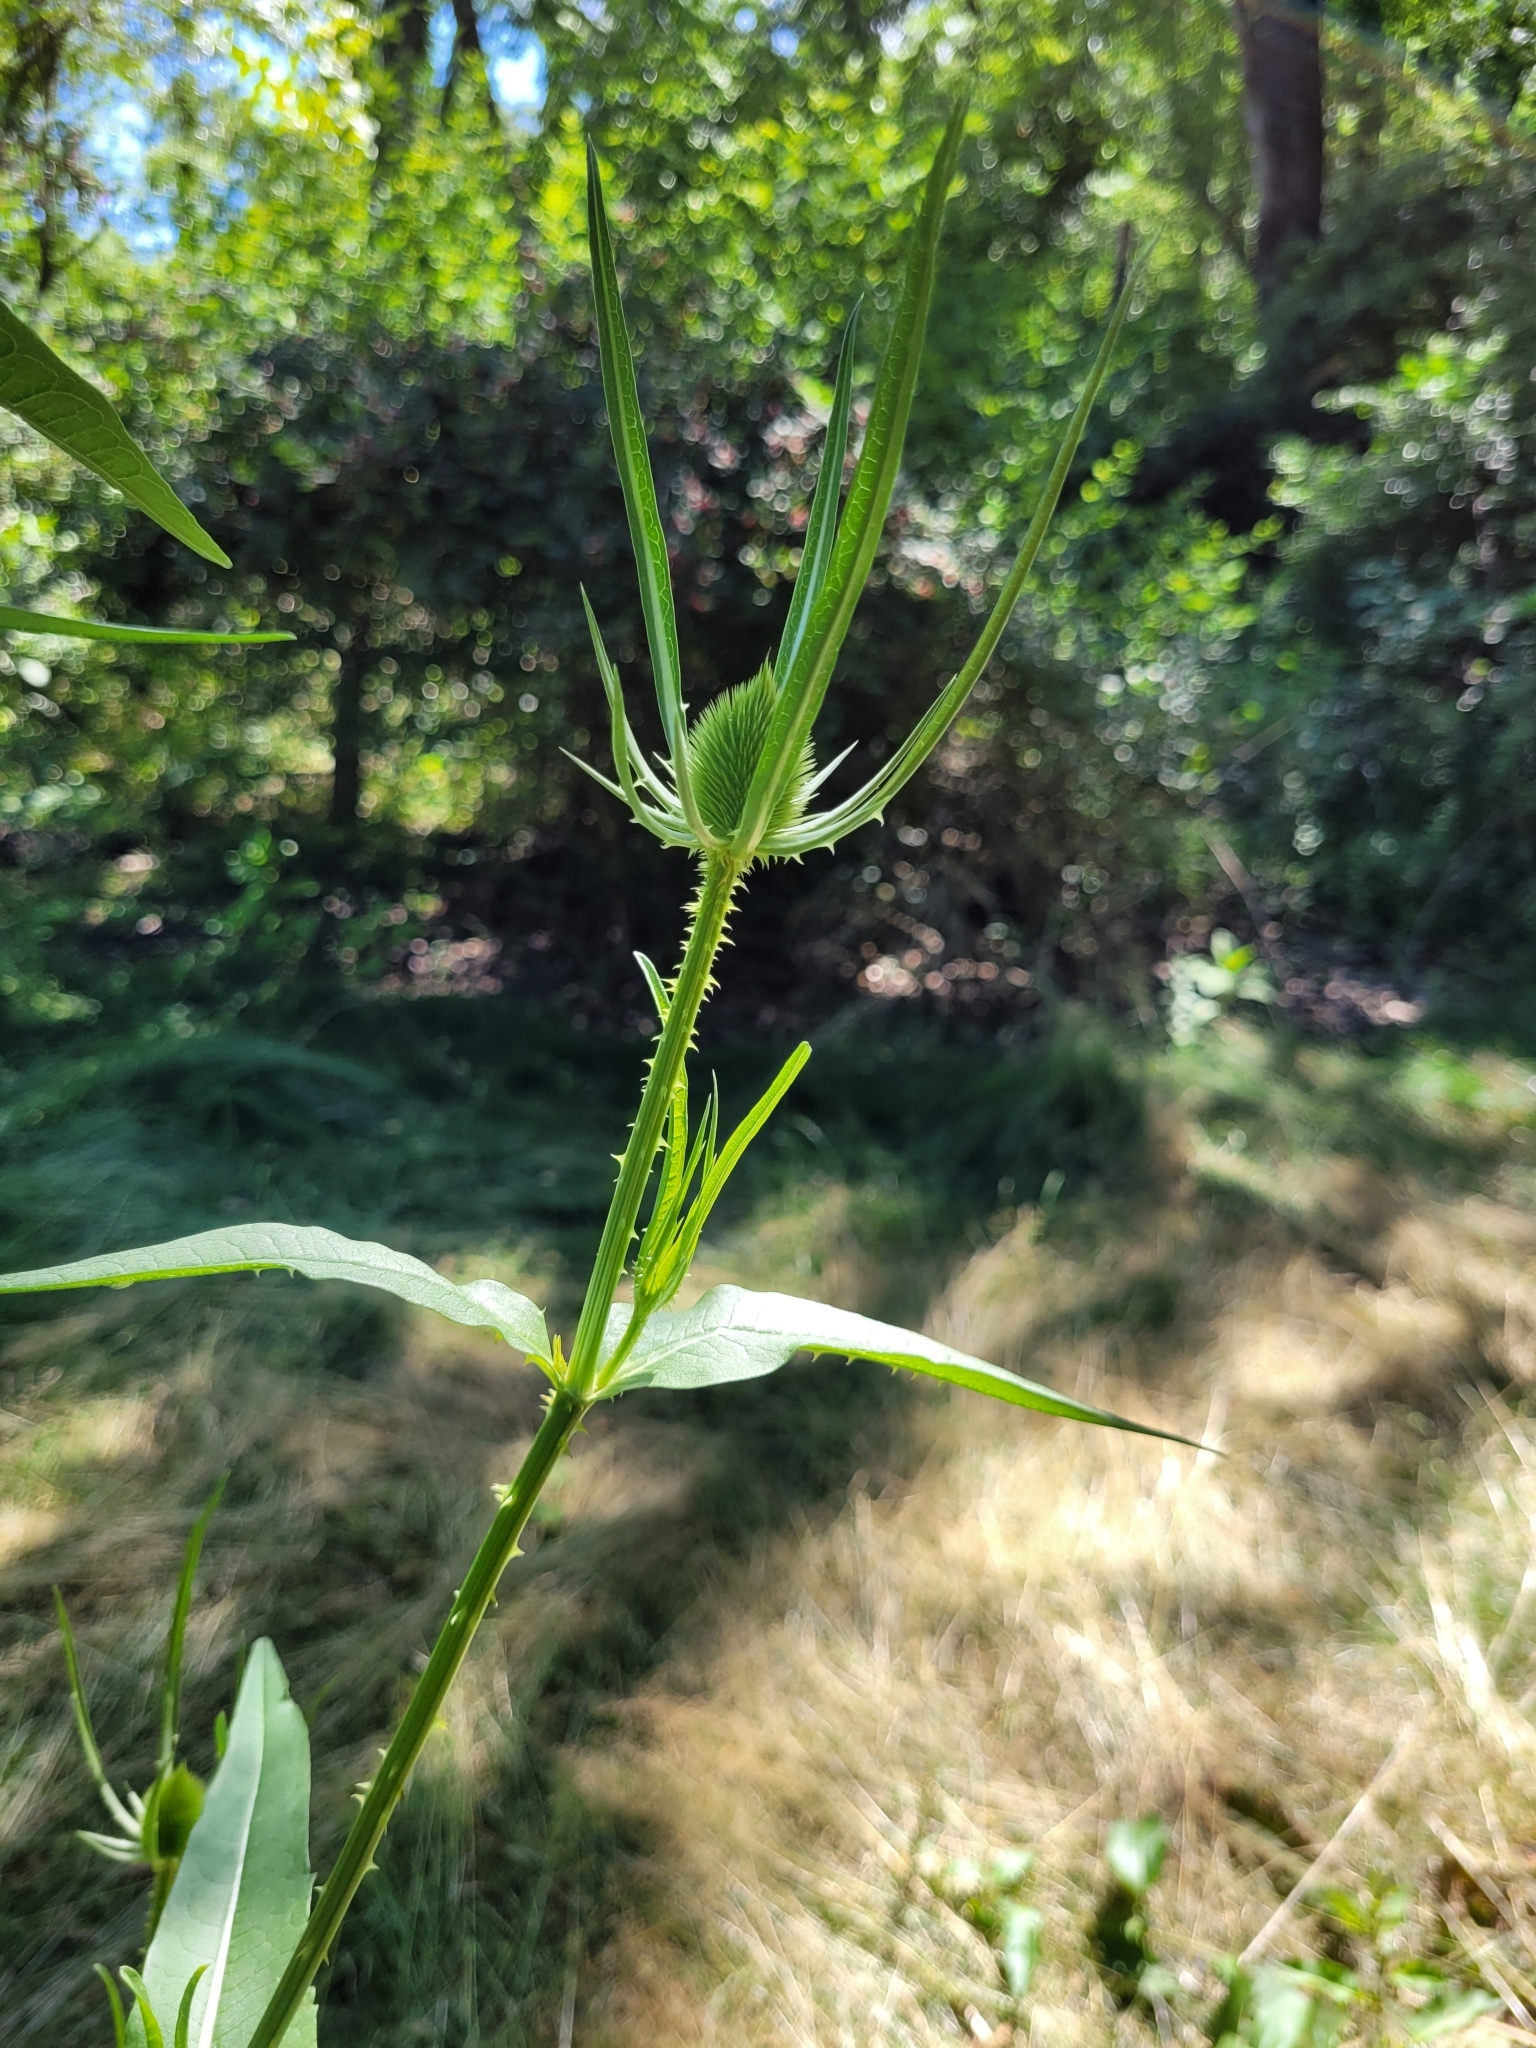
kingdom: Plantae
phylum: Tracheophyta
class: Magnoliopsida
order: Dipsacales
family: Caprifoliaceae
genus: Dipsacus
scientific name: Dipsacus fullonum
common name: Teasel
